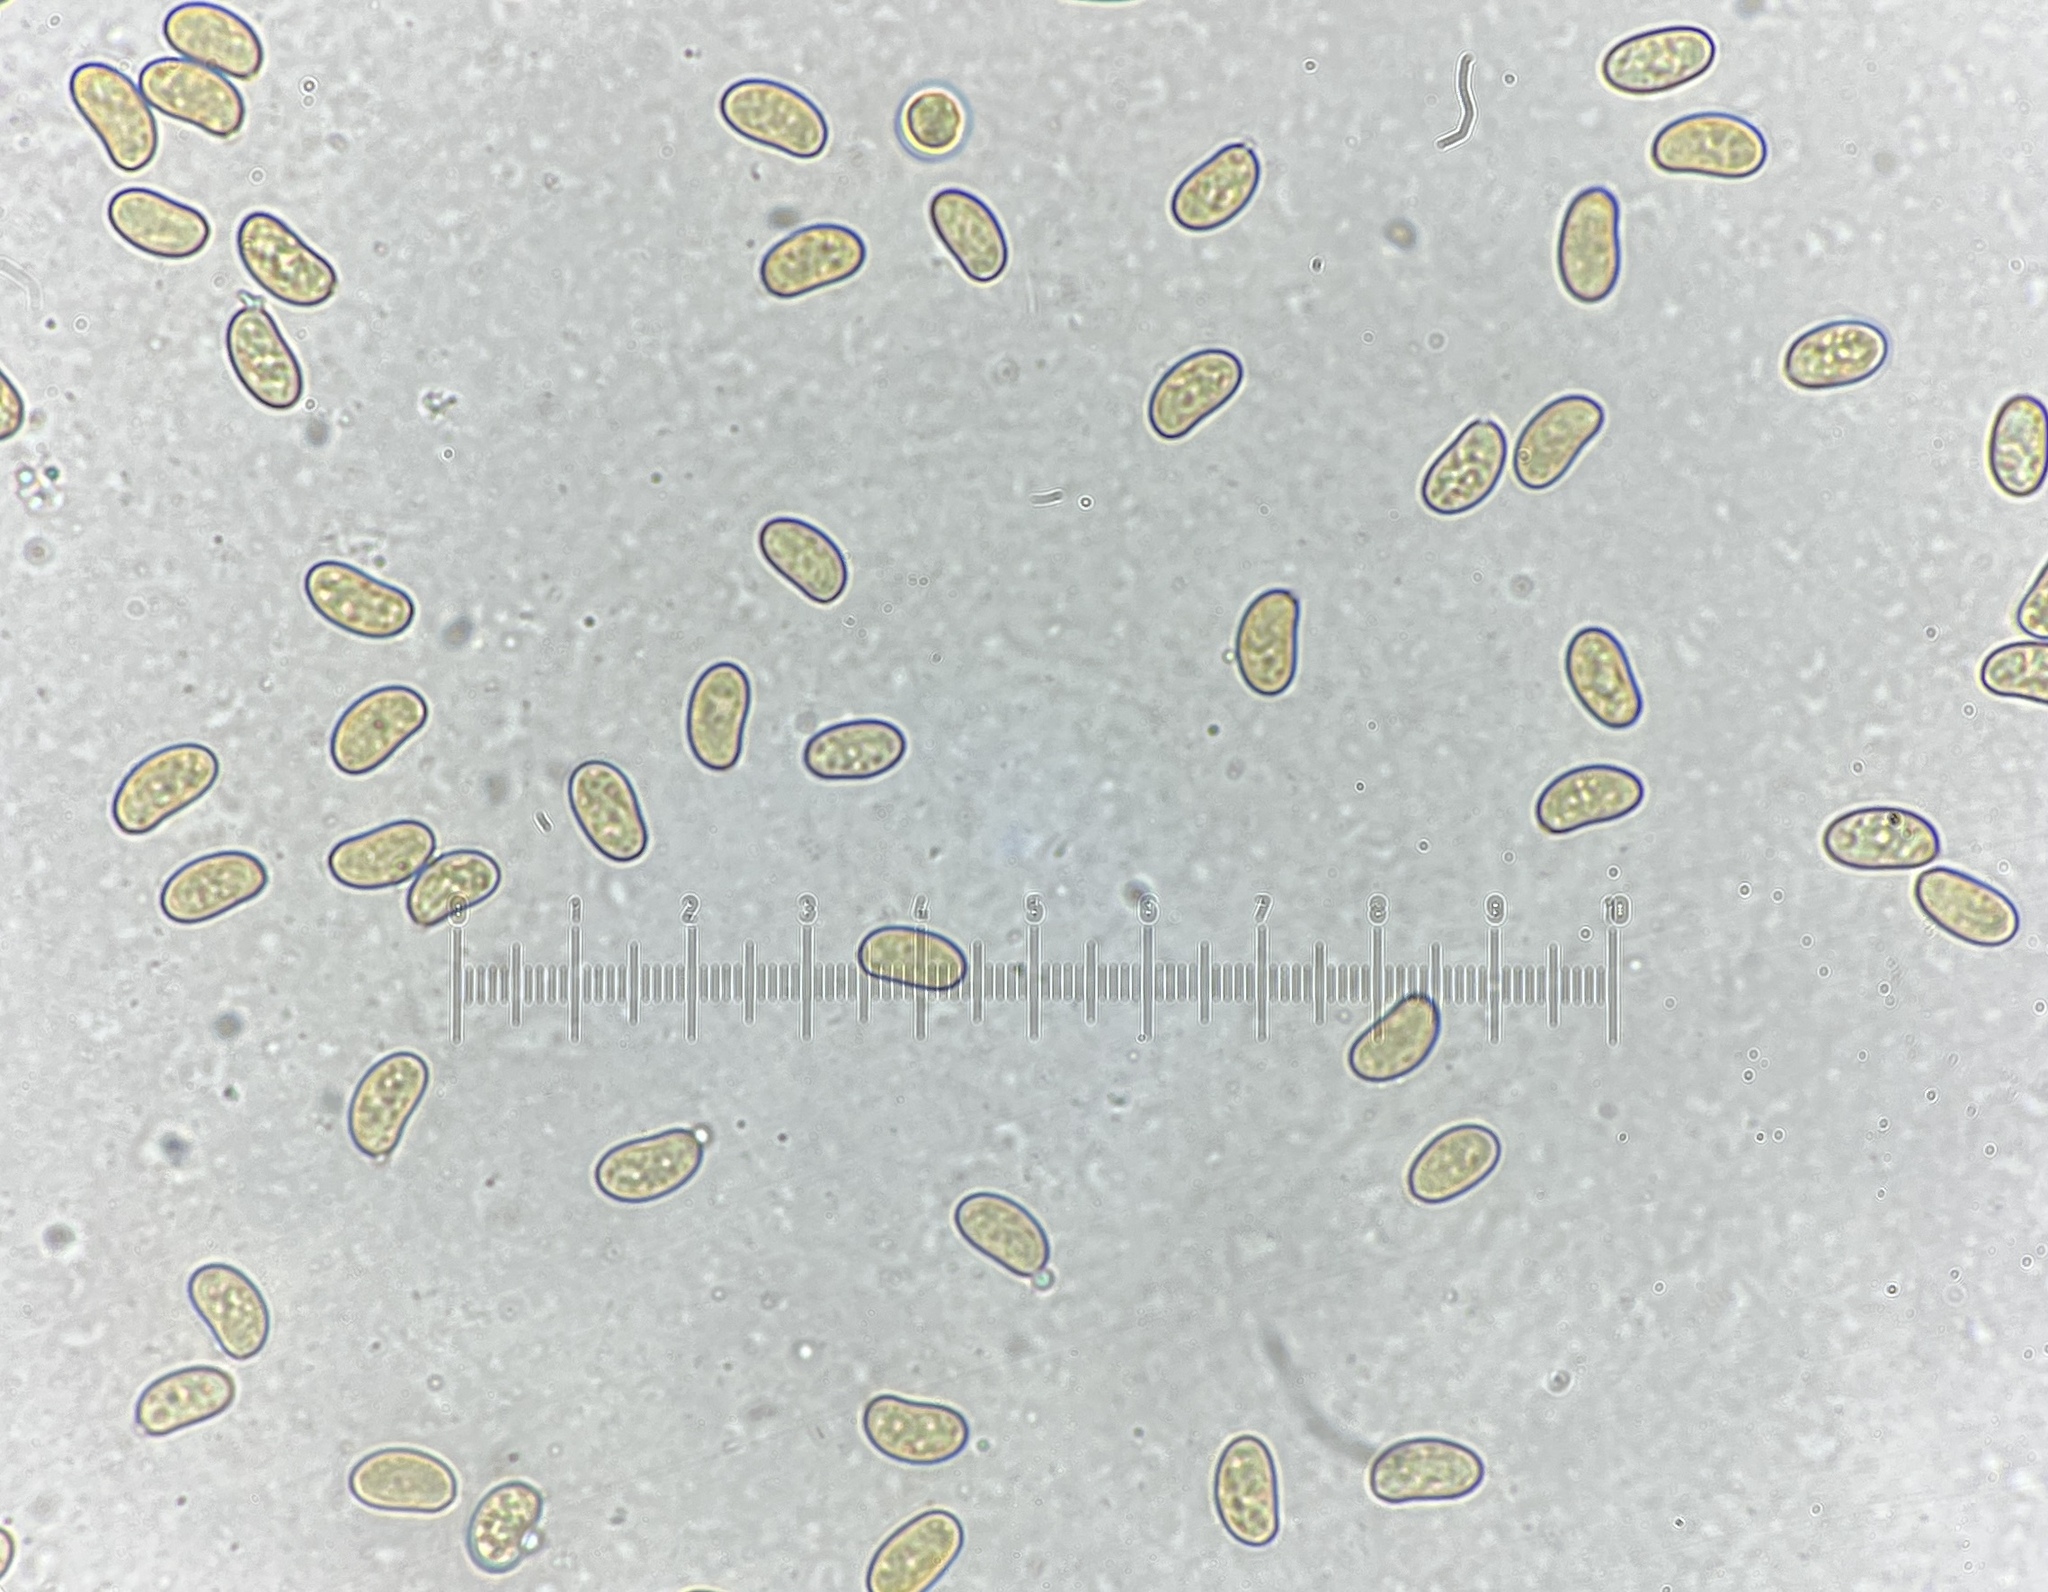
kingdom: Fungi
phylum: Basidiomycota
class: Agaricomycetes
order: Agaricales
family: Inocybaceae
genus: Inosperma
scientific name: Inosperma mutatum
